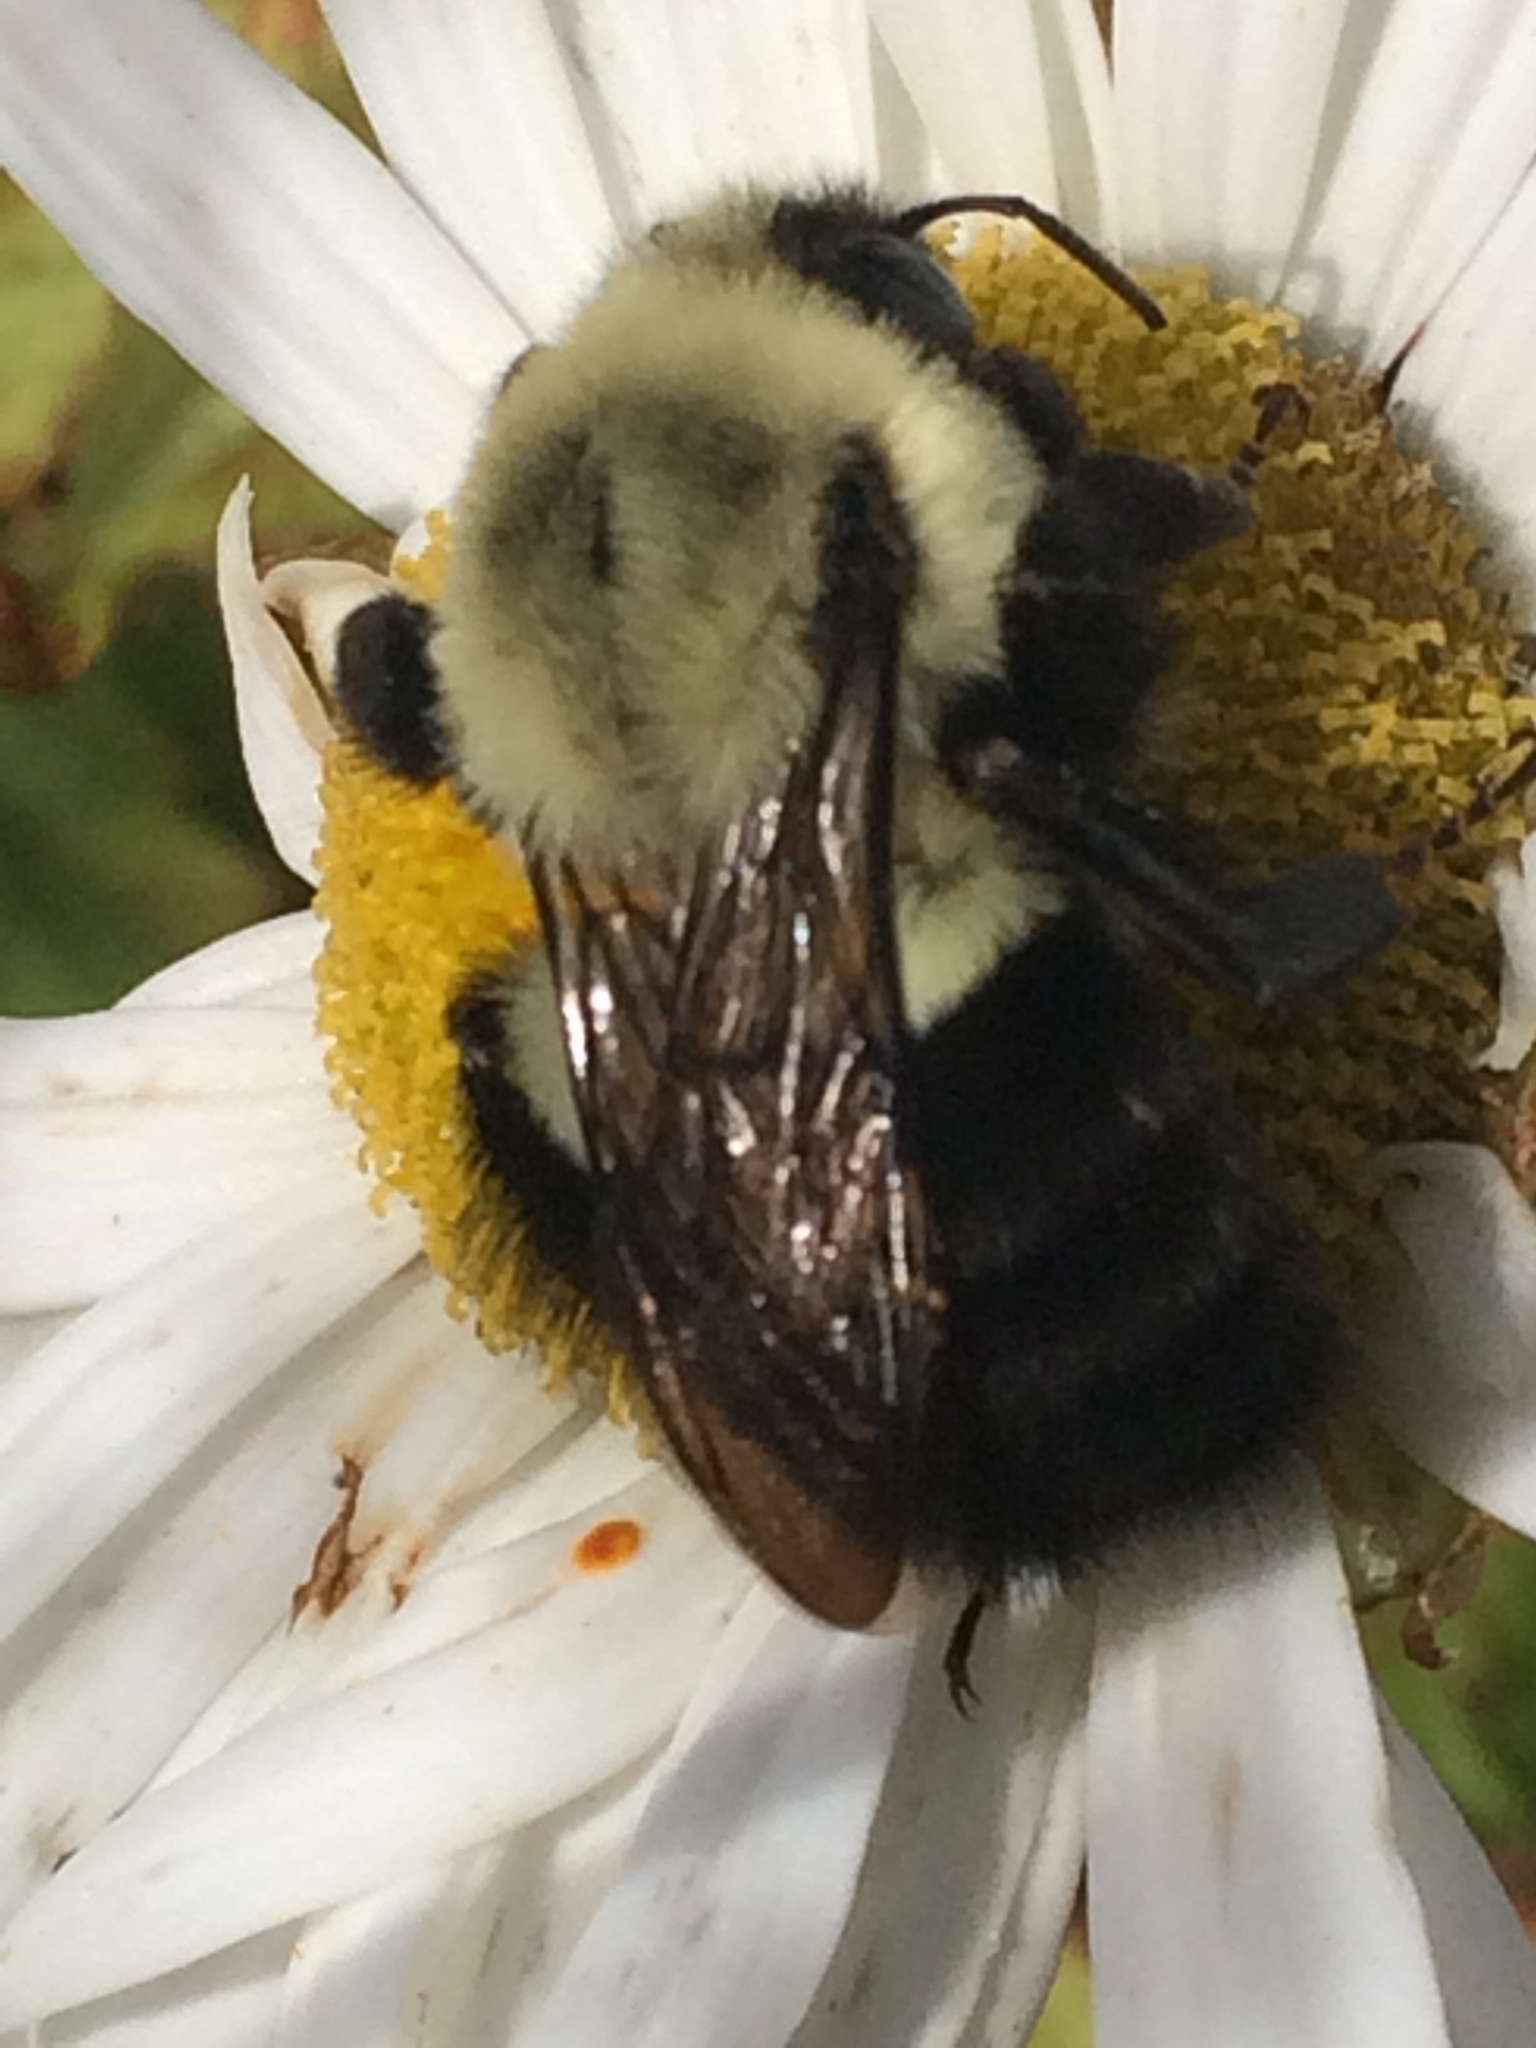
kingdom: Animalia
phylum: Arthropoda
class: Insecta
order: Hymenoptera
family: Apidae
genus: Bombus
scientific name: Bombus impatiens
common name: Common eastern bumble bee
